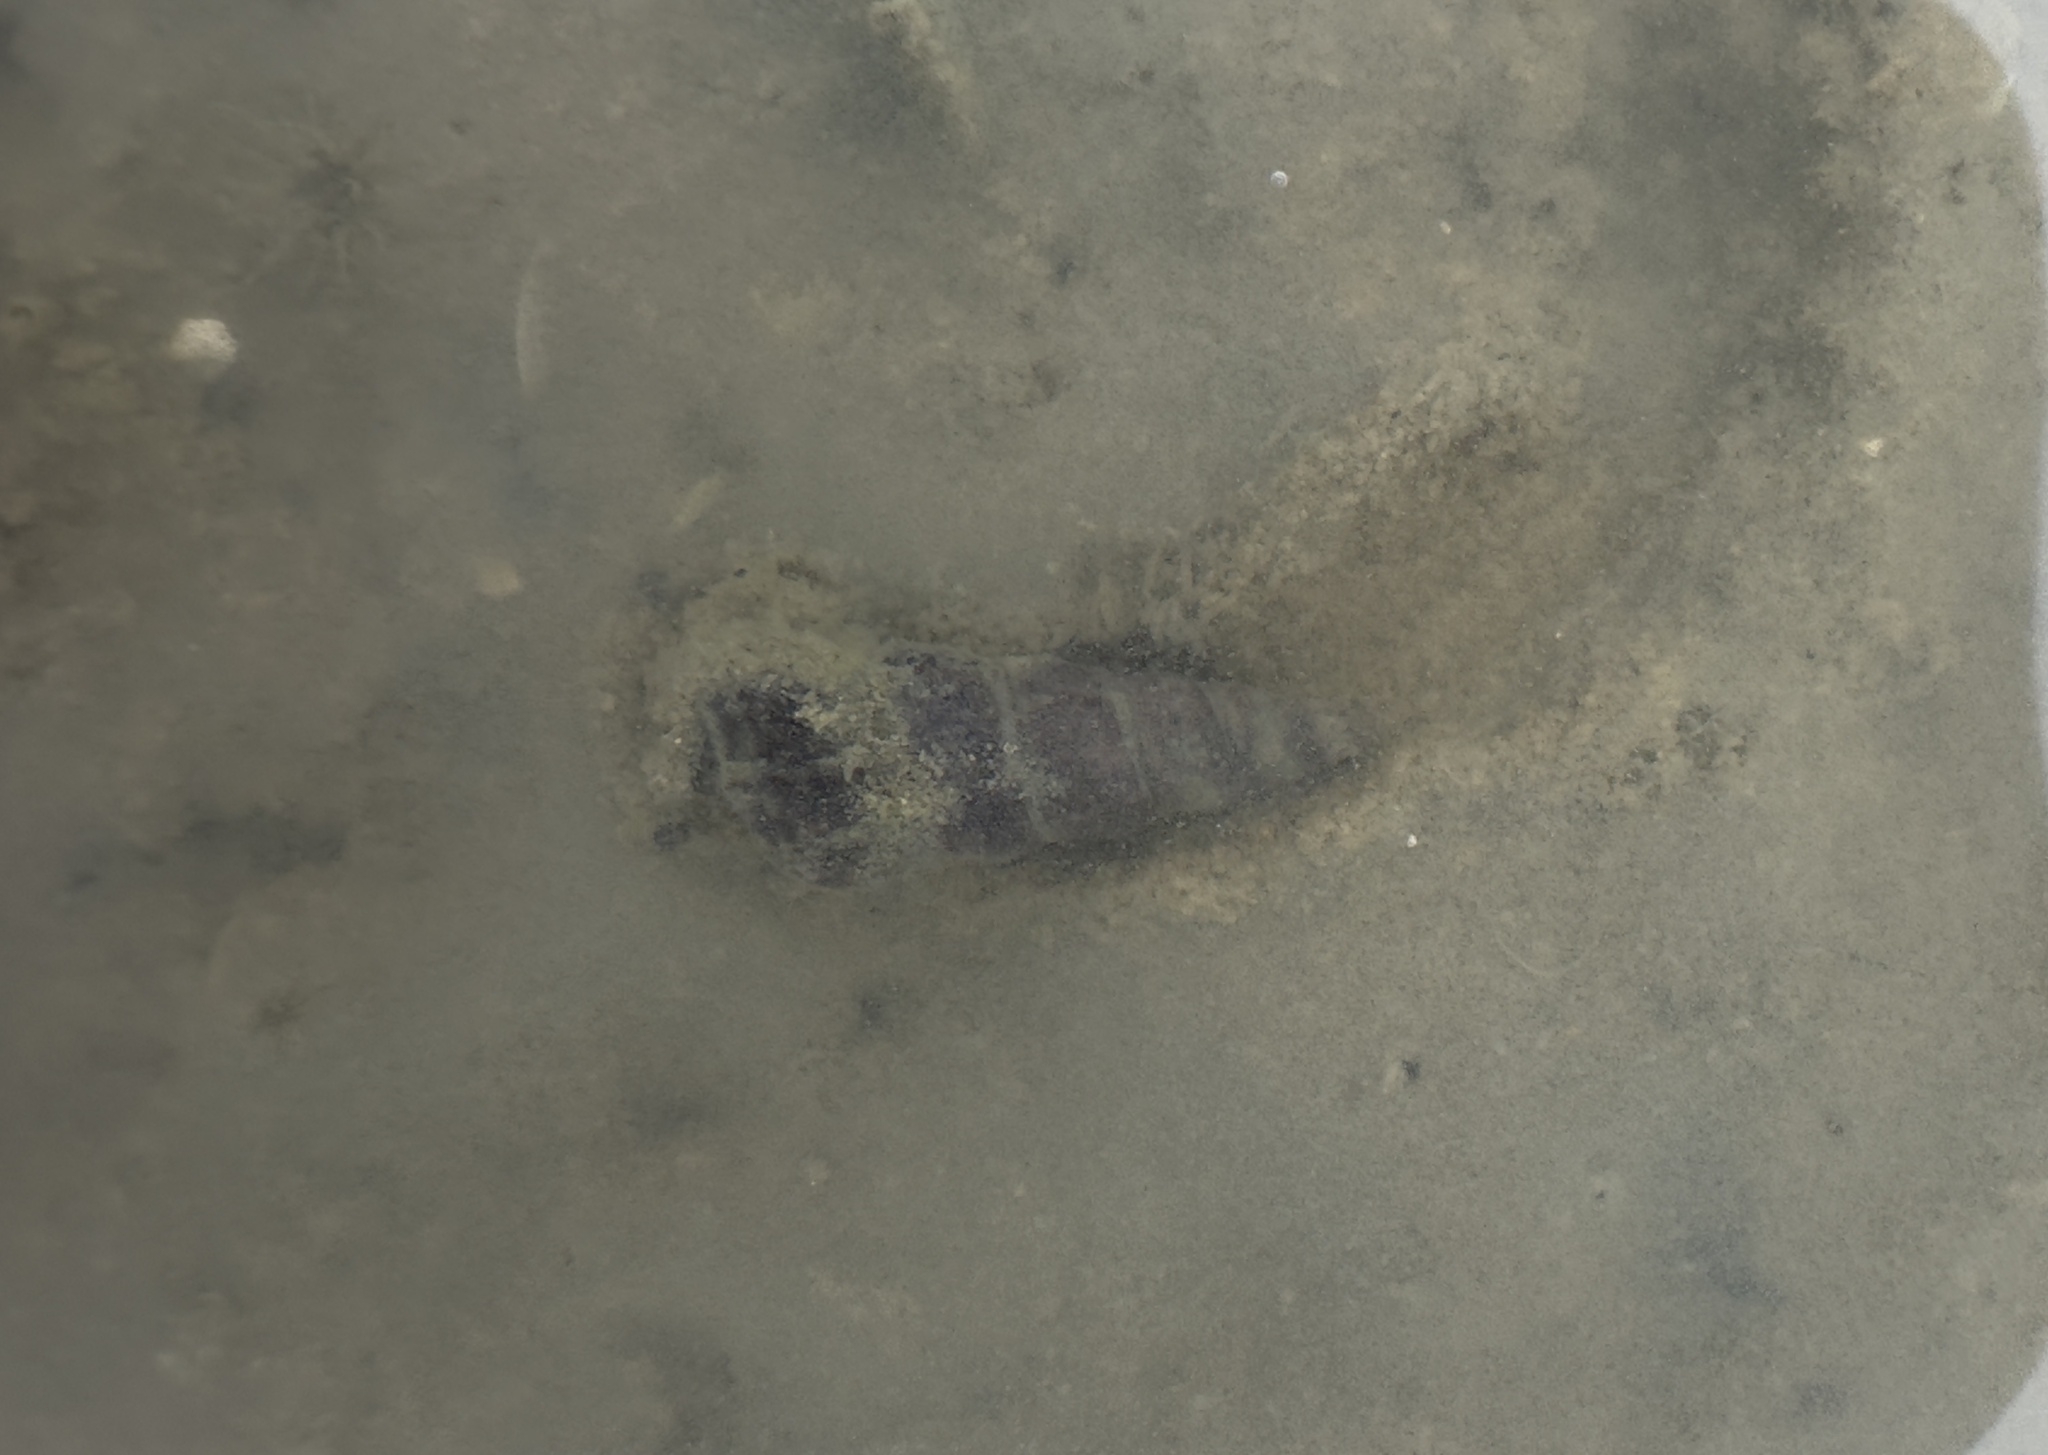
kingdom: Animalia
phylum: Mollusca
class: Gastropoda
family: Batillariidae
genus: Zeacumantus
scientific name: Zeacumantus lutulentus
